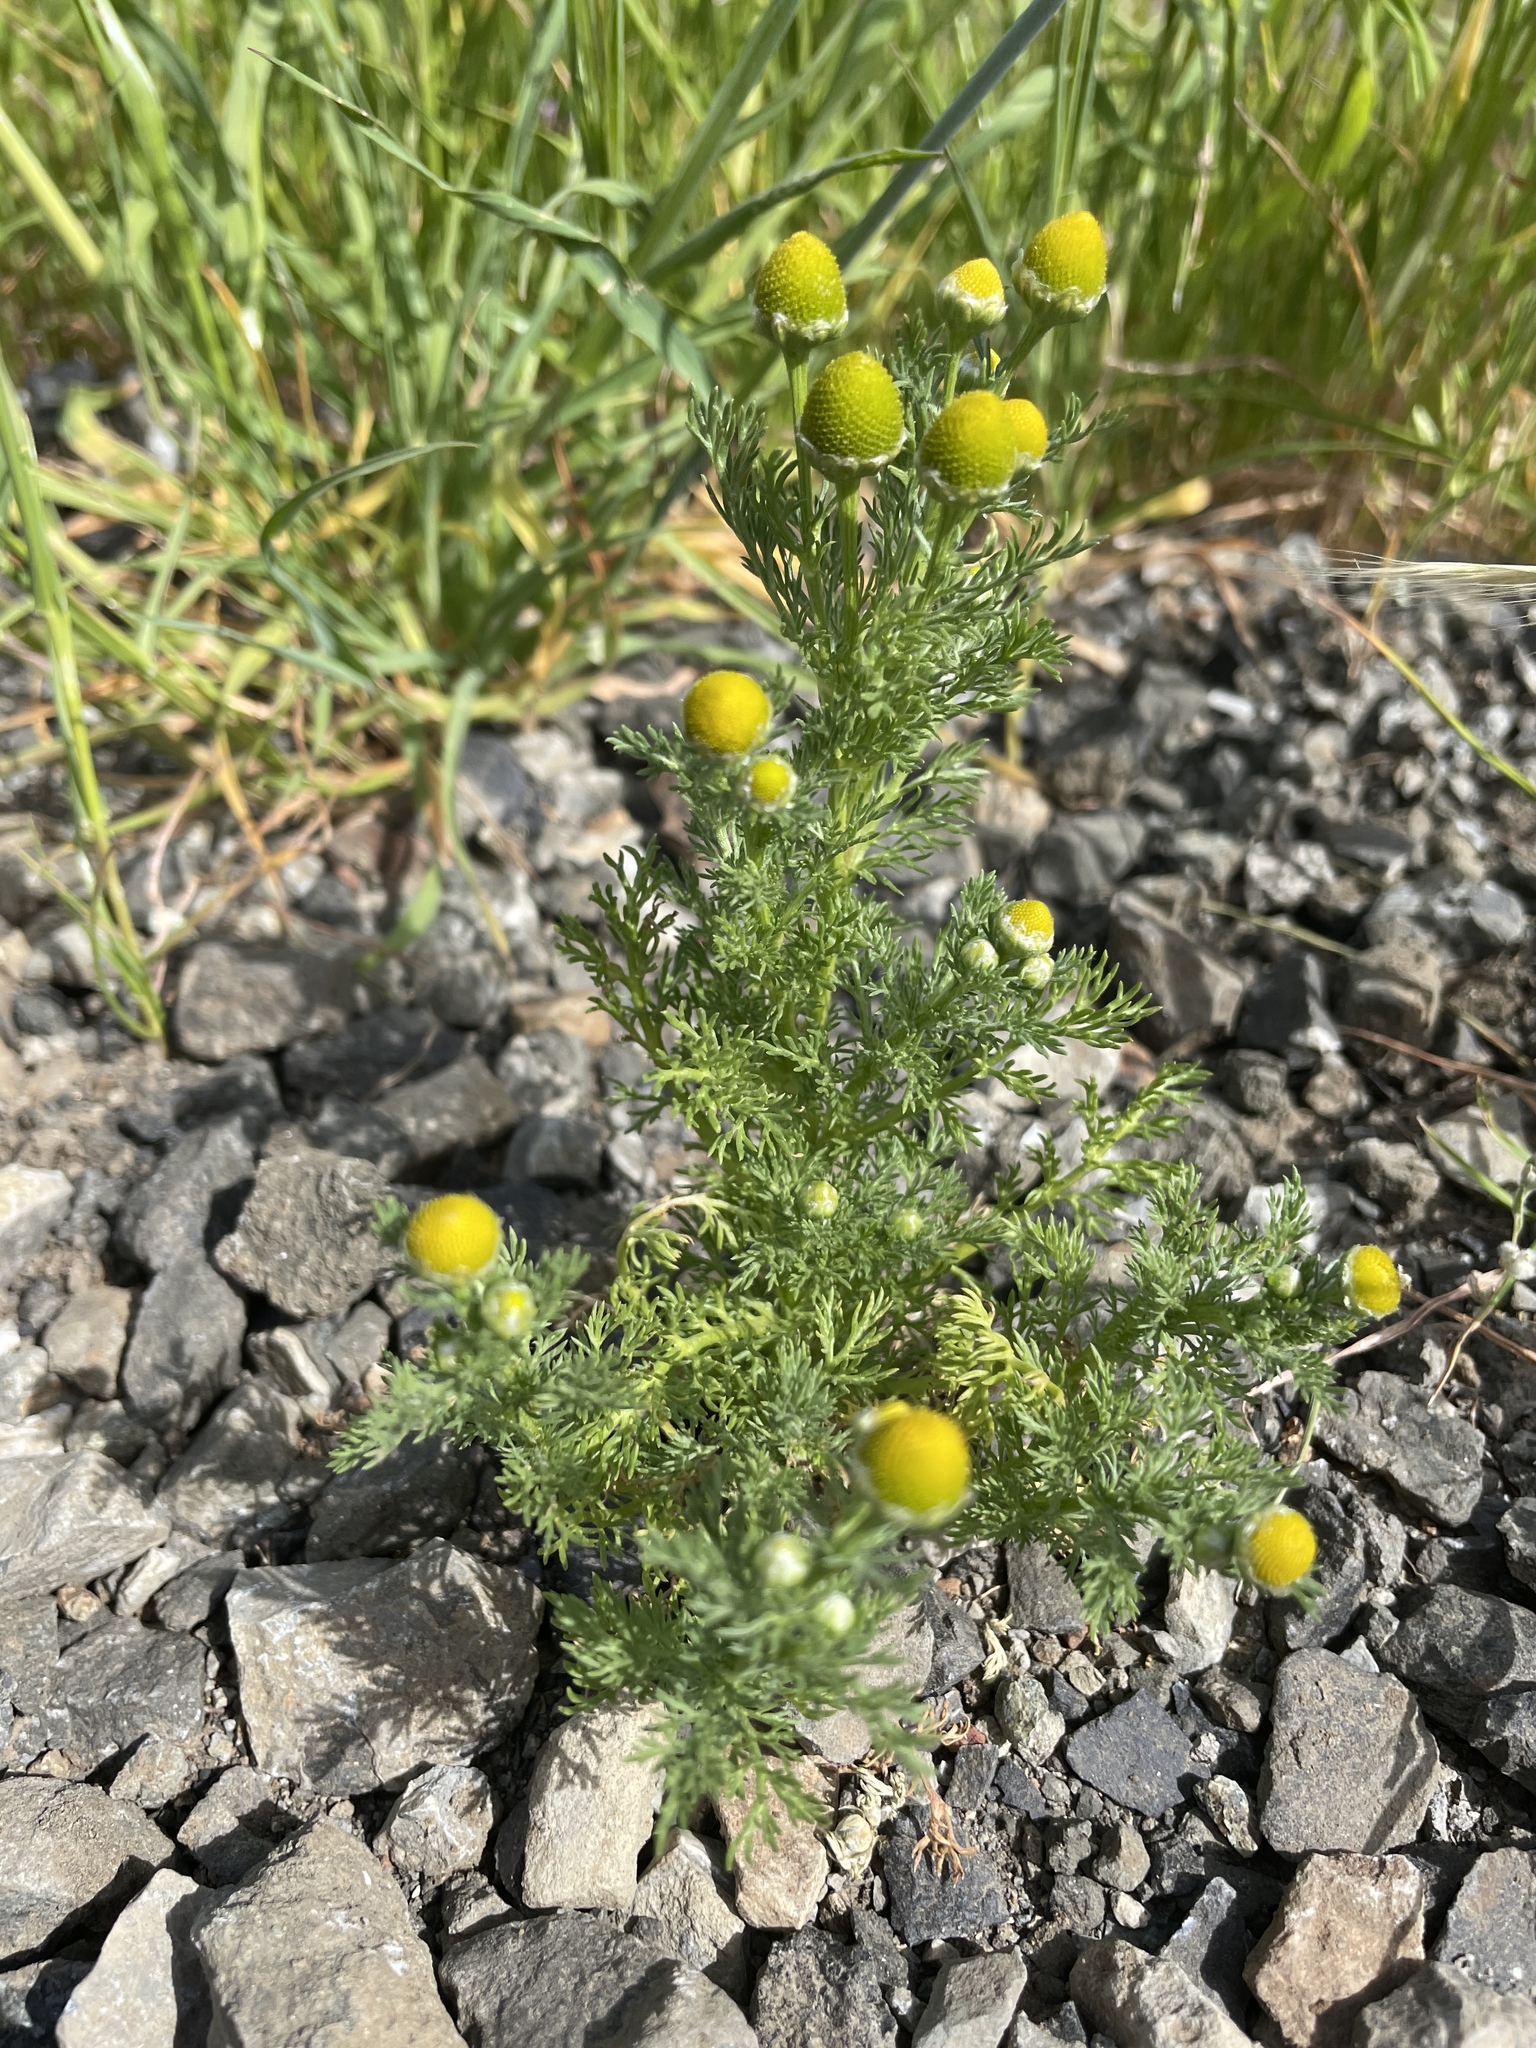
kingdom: Plantae
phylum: Tracheophyta
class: Magnoliopsida
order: Asterales
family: Asteraceae
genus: Matricaria
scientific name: Matricaria discoidea
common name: Disc mayweed
